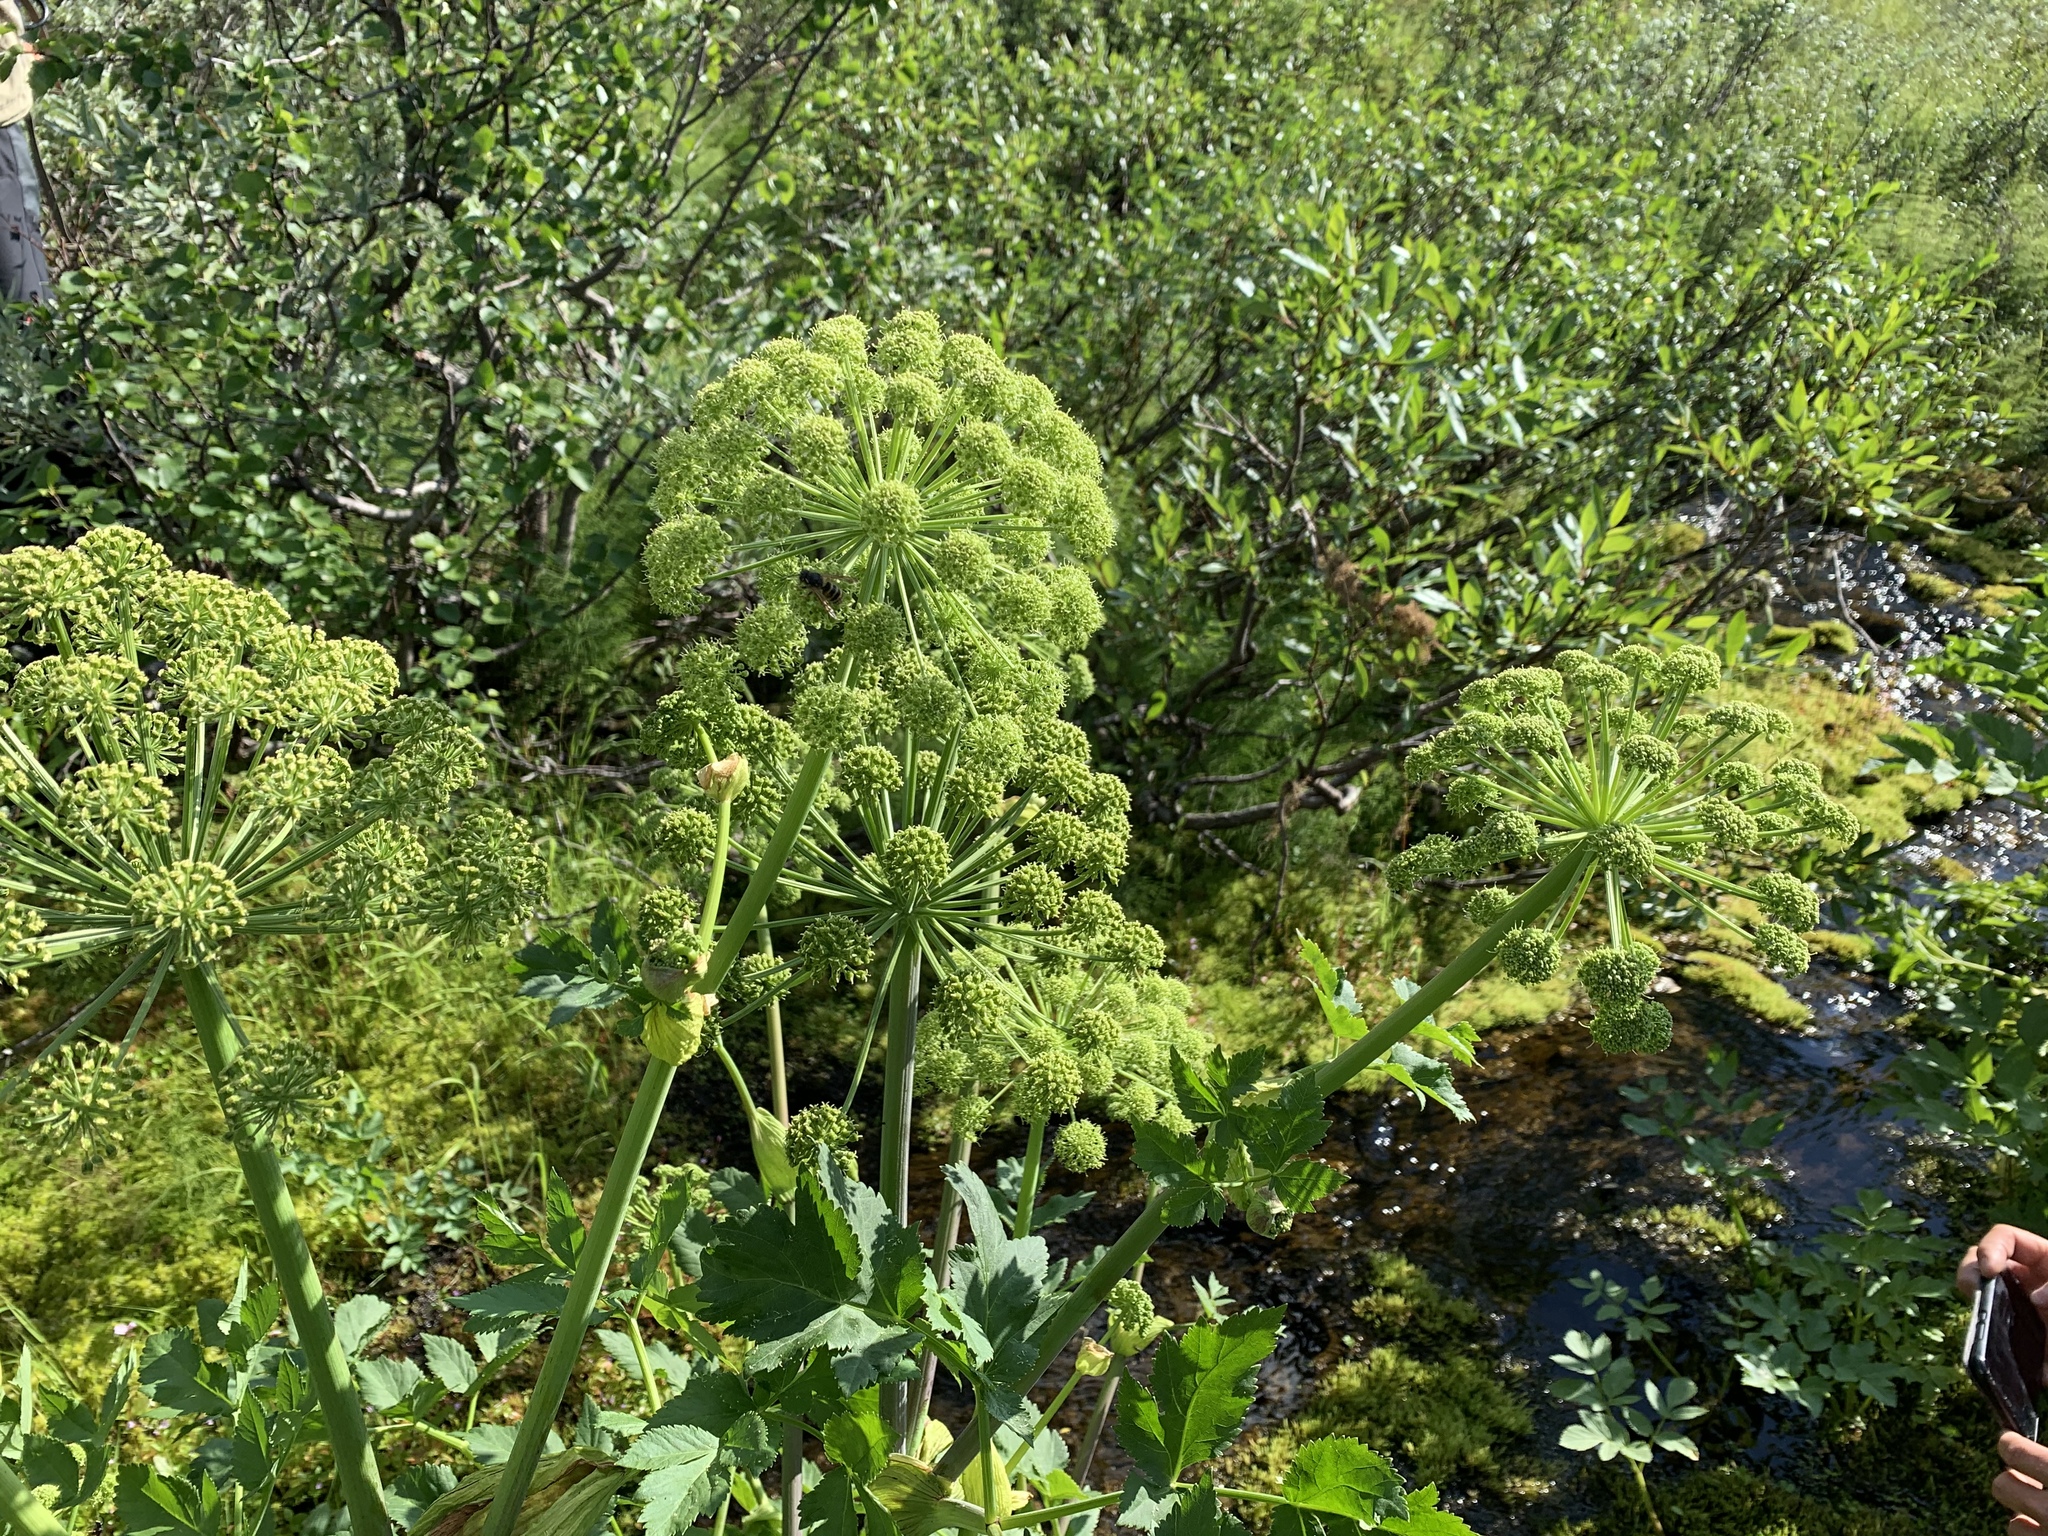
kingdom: Plantae
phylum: Tracheophyta
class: Magnoliopsida
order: Apiales
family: Apiaceae
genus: Angelica
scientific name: Angelica archangelica
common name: Garden angelica
